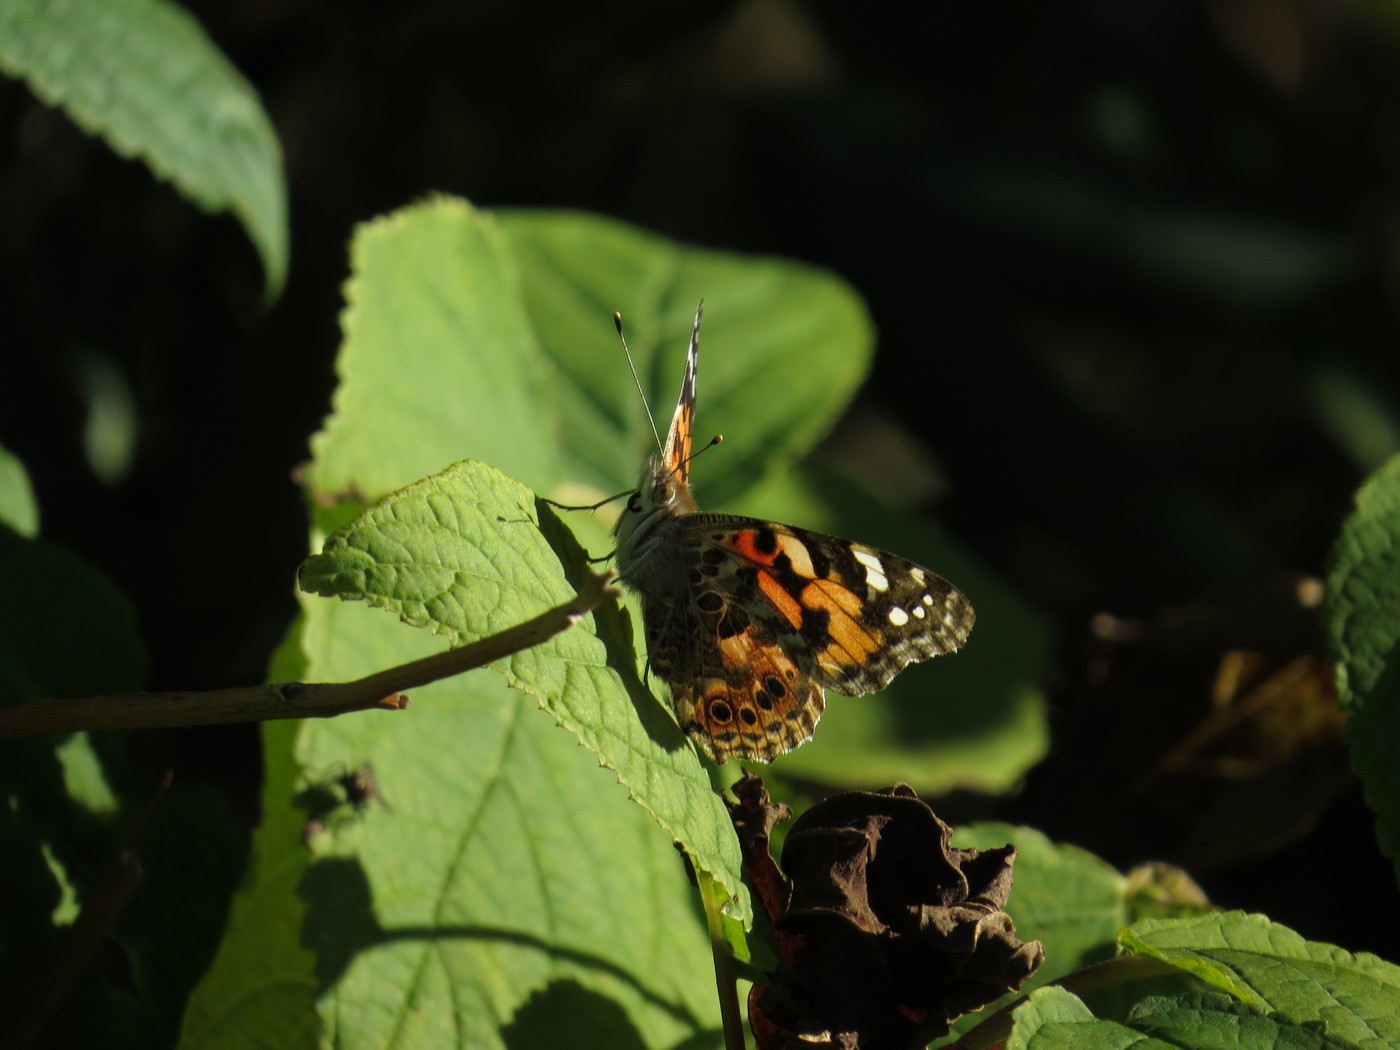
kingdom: Animalia
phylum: Arthropoda
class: Insecta
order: Lepidoptera
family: Nymphalidae
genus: Vanessa
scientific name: Vanessa cardui
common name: Painted lady
